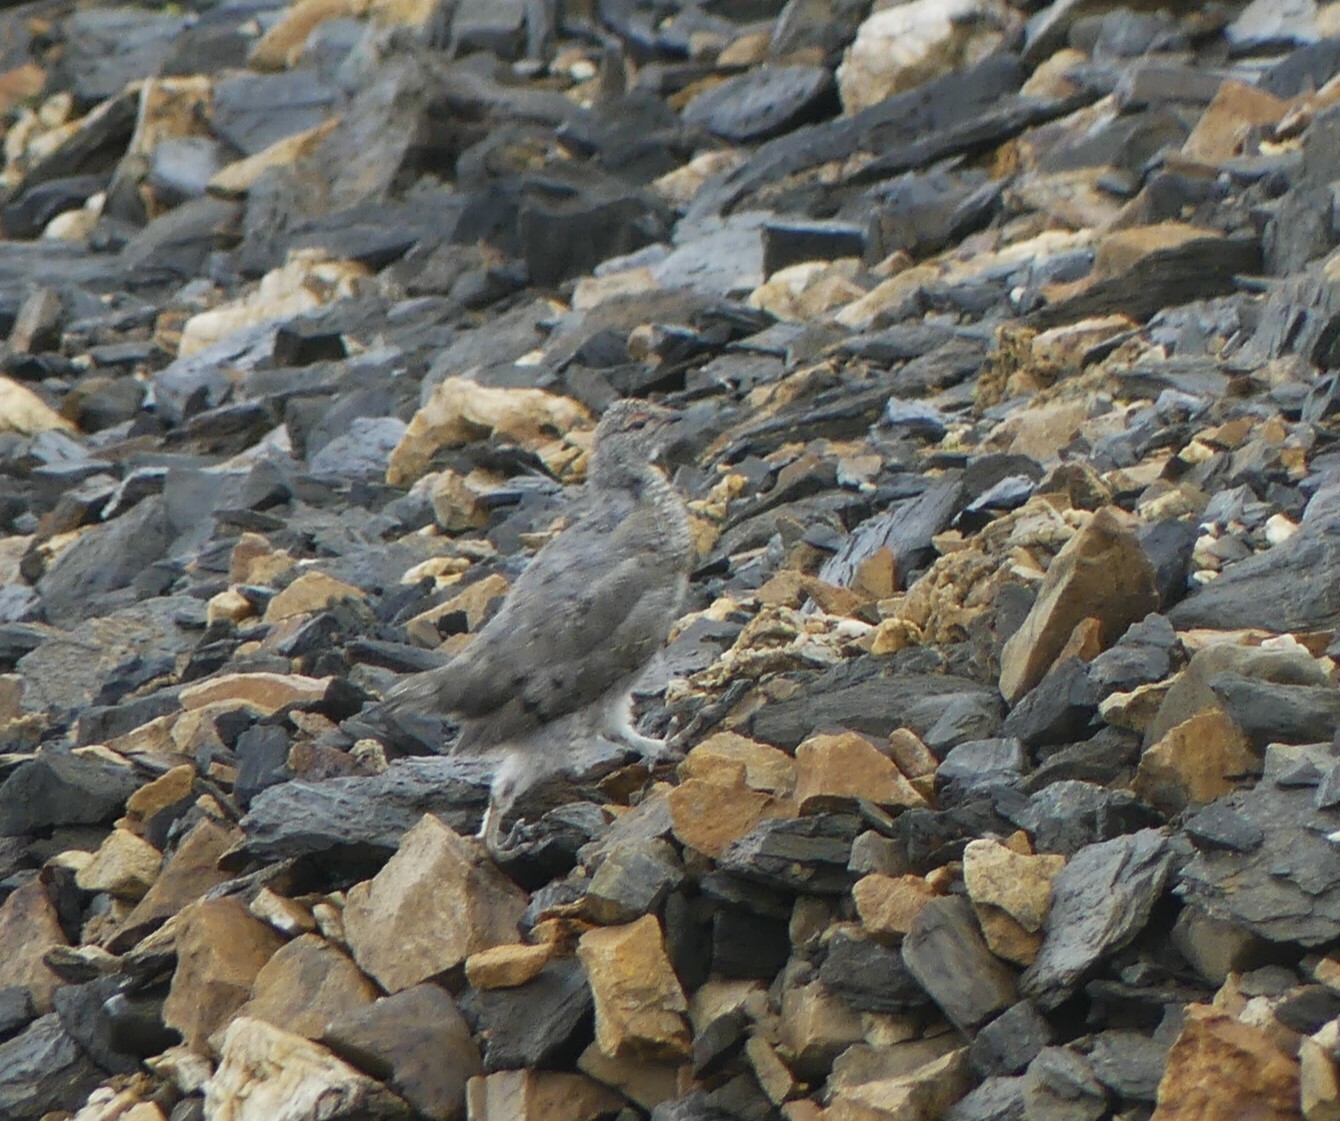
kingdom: Animalia
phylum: Chordata
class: Aves
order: Galliformes
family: Phasianidae
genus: Lagopus
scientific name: Lagopus leucura
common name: White-tailed ptarmigan
